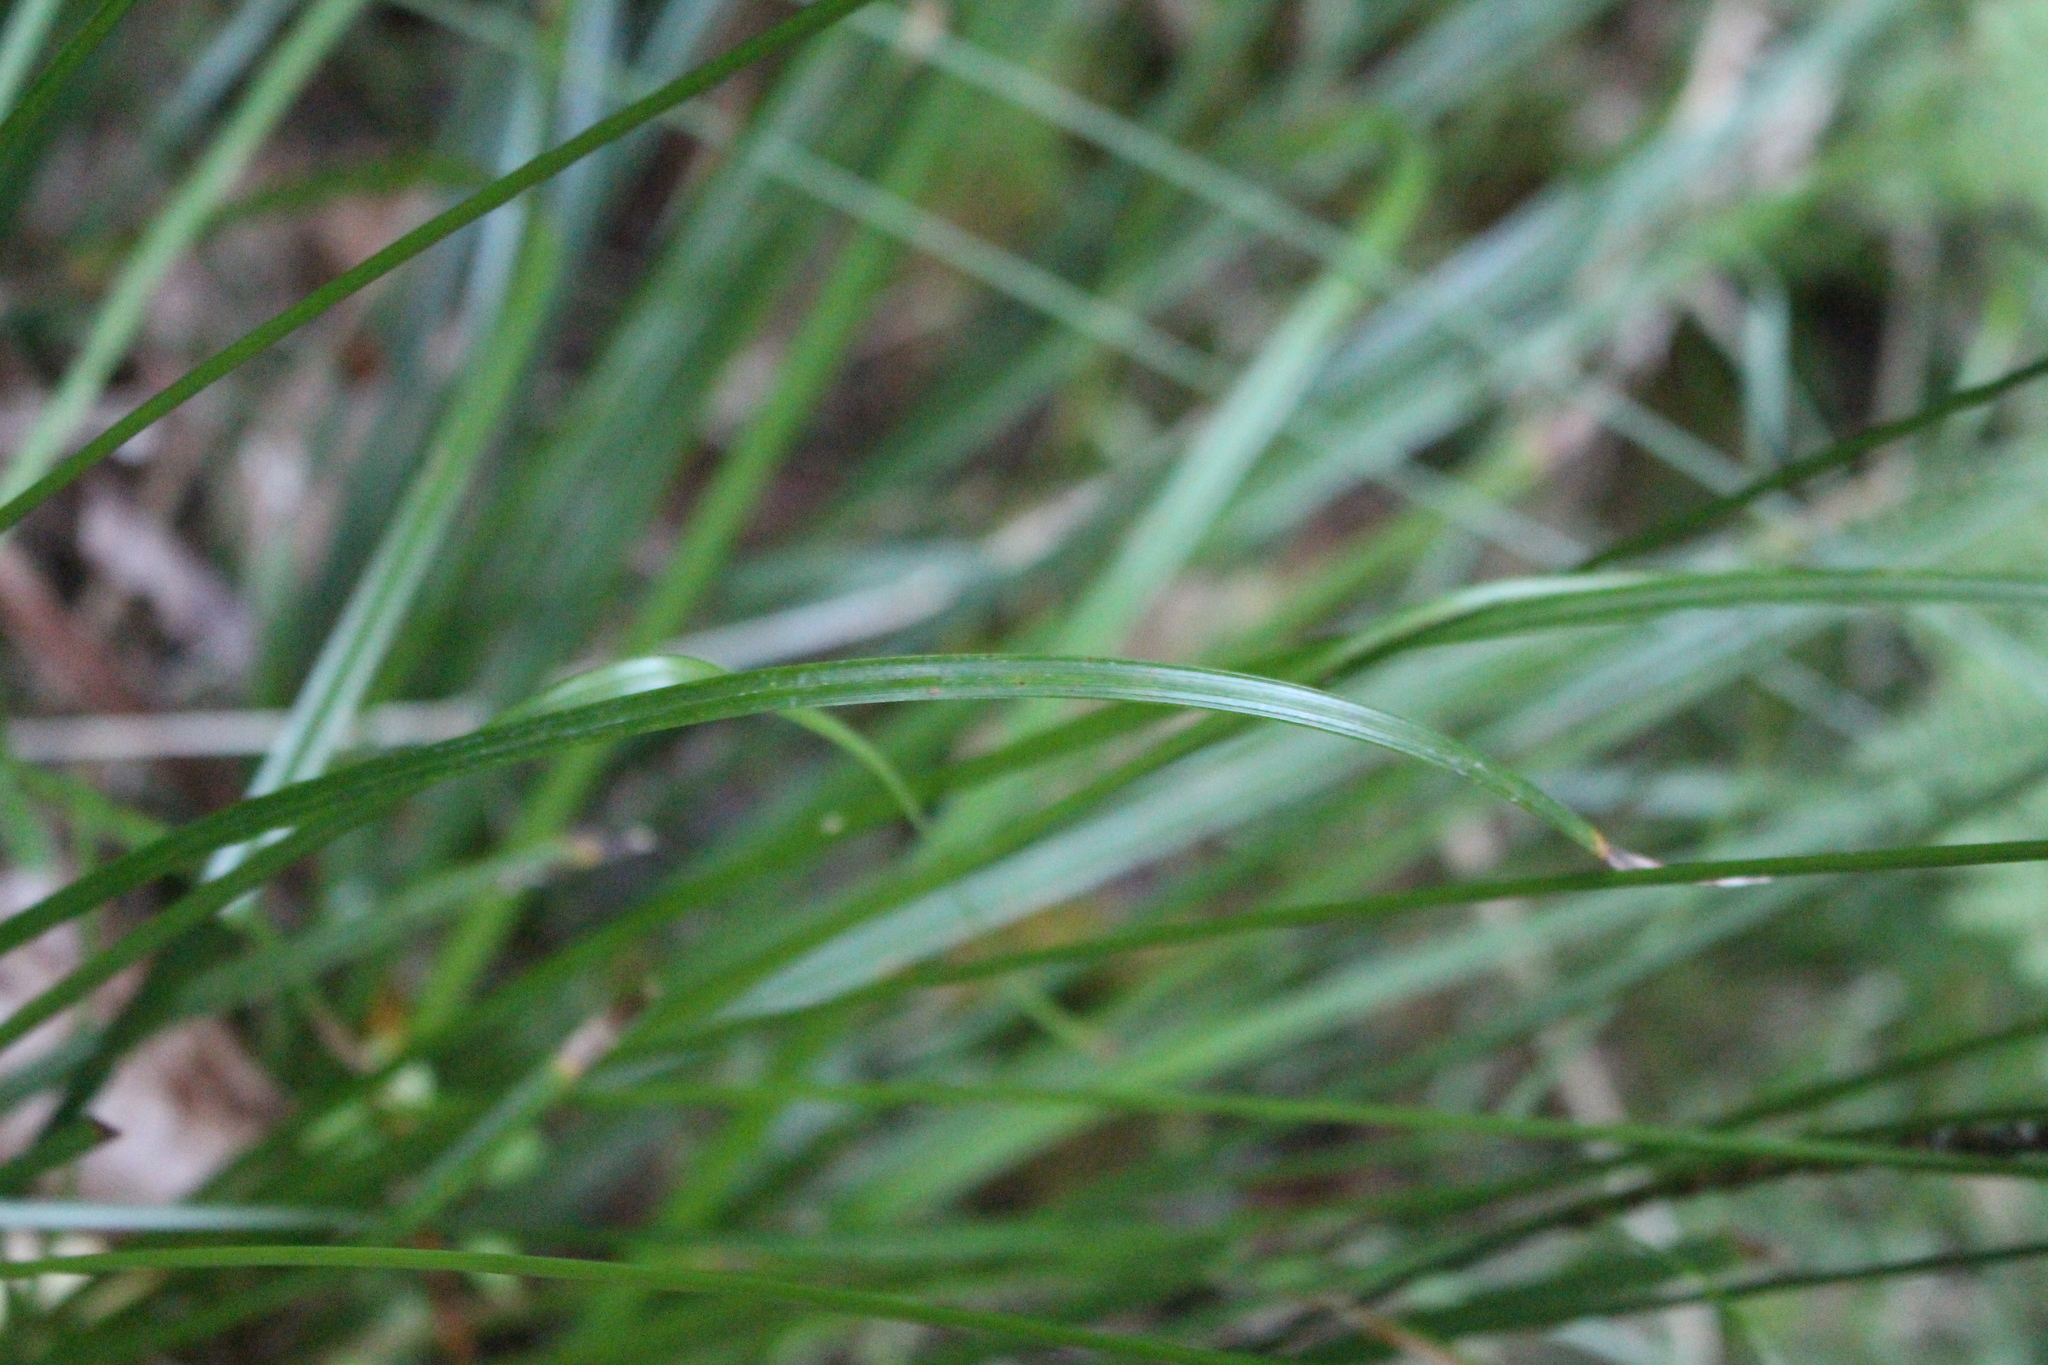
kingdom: Plantae
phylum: Tracheophyta
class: Liliopsida
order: Poales
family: Cyperaceae
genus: Carex
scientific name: Carex uncinata
